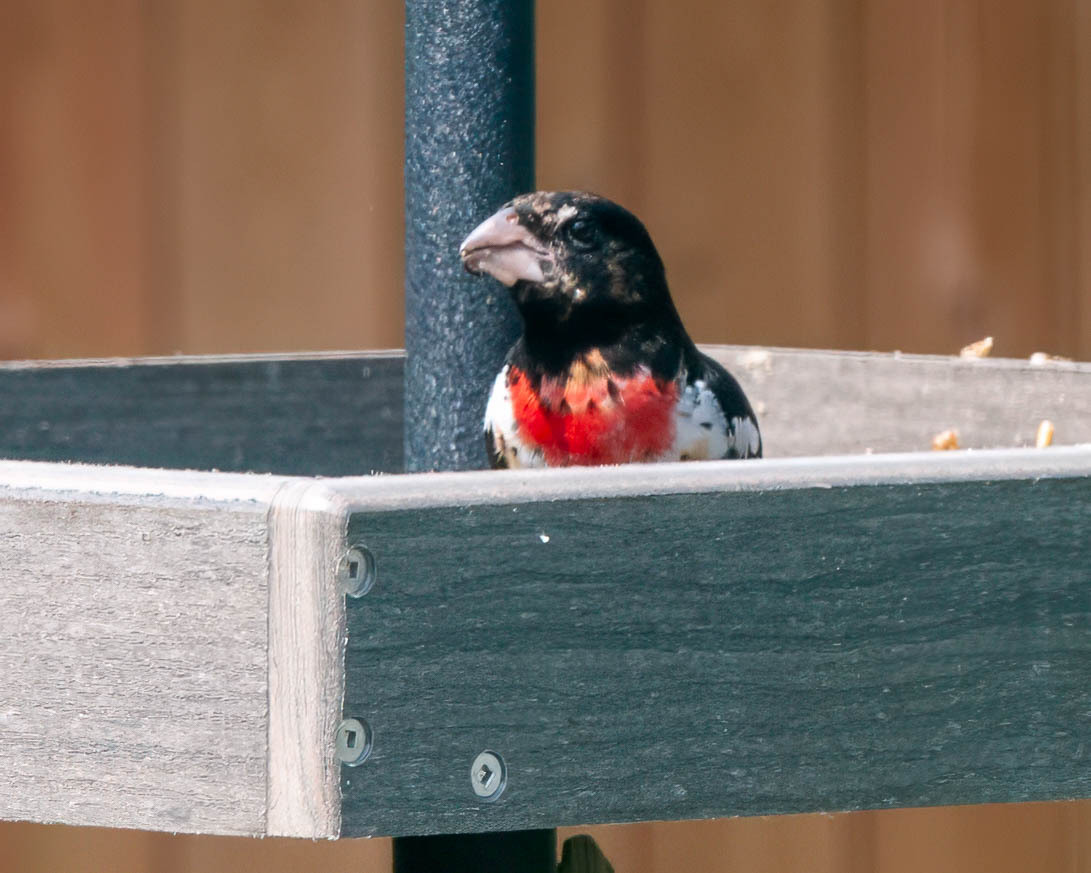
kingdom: Animalia
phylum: Chordata
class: Aves
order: Passeriformes
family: Cardinalidae
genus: Pheucticus
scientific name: Pheucticus ludovicianus
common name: Rose-breasted grosbeak
